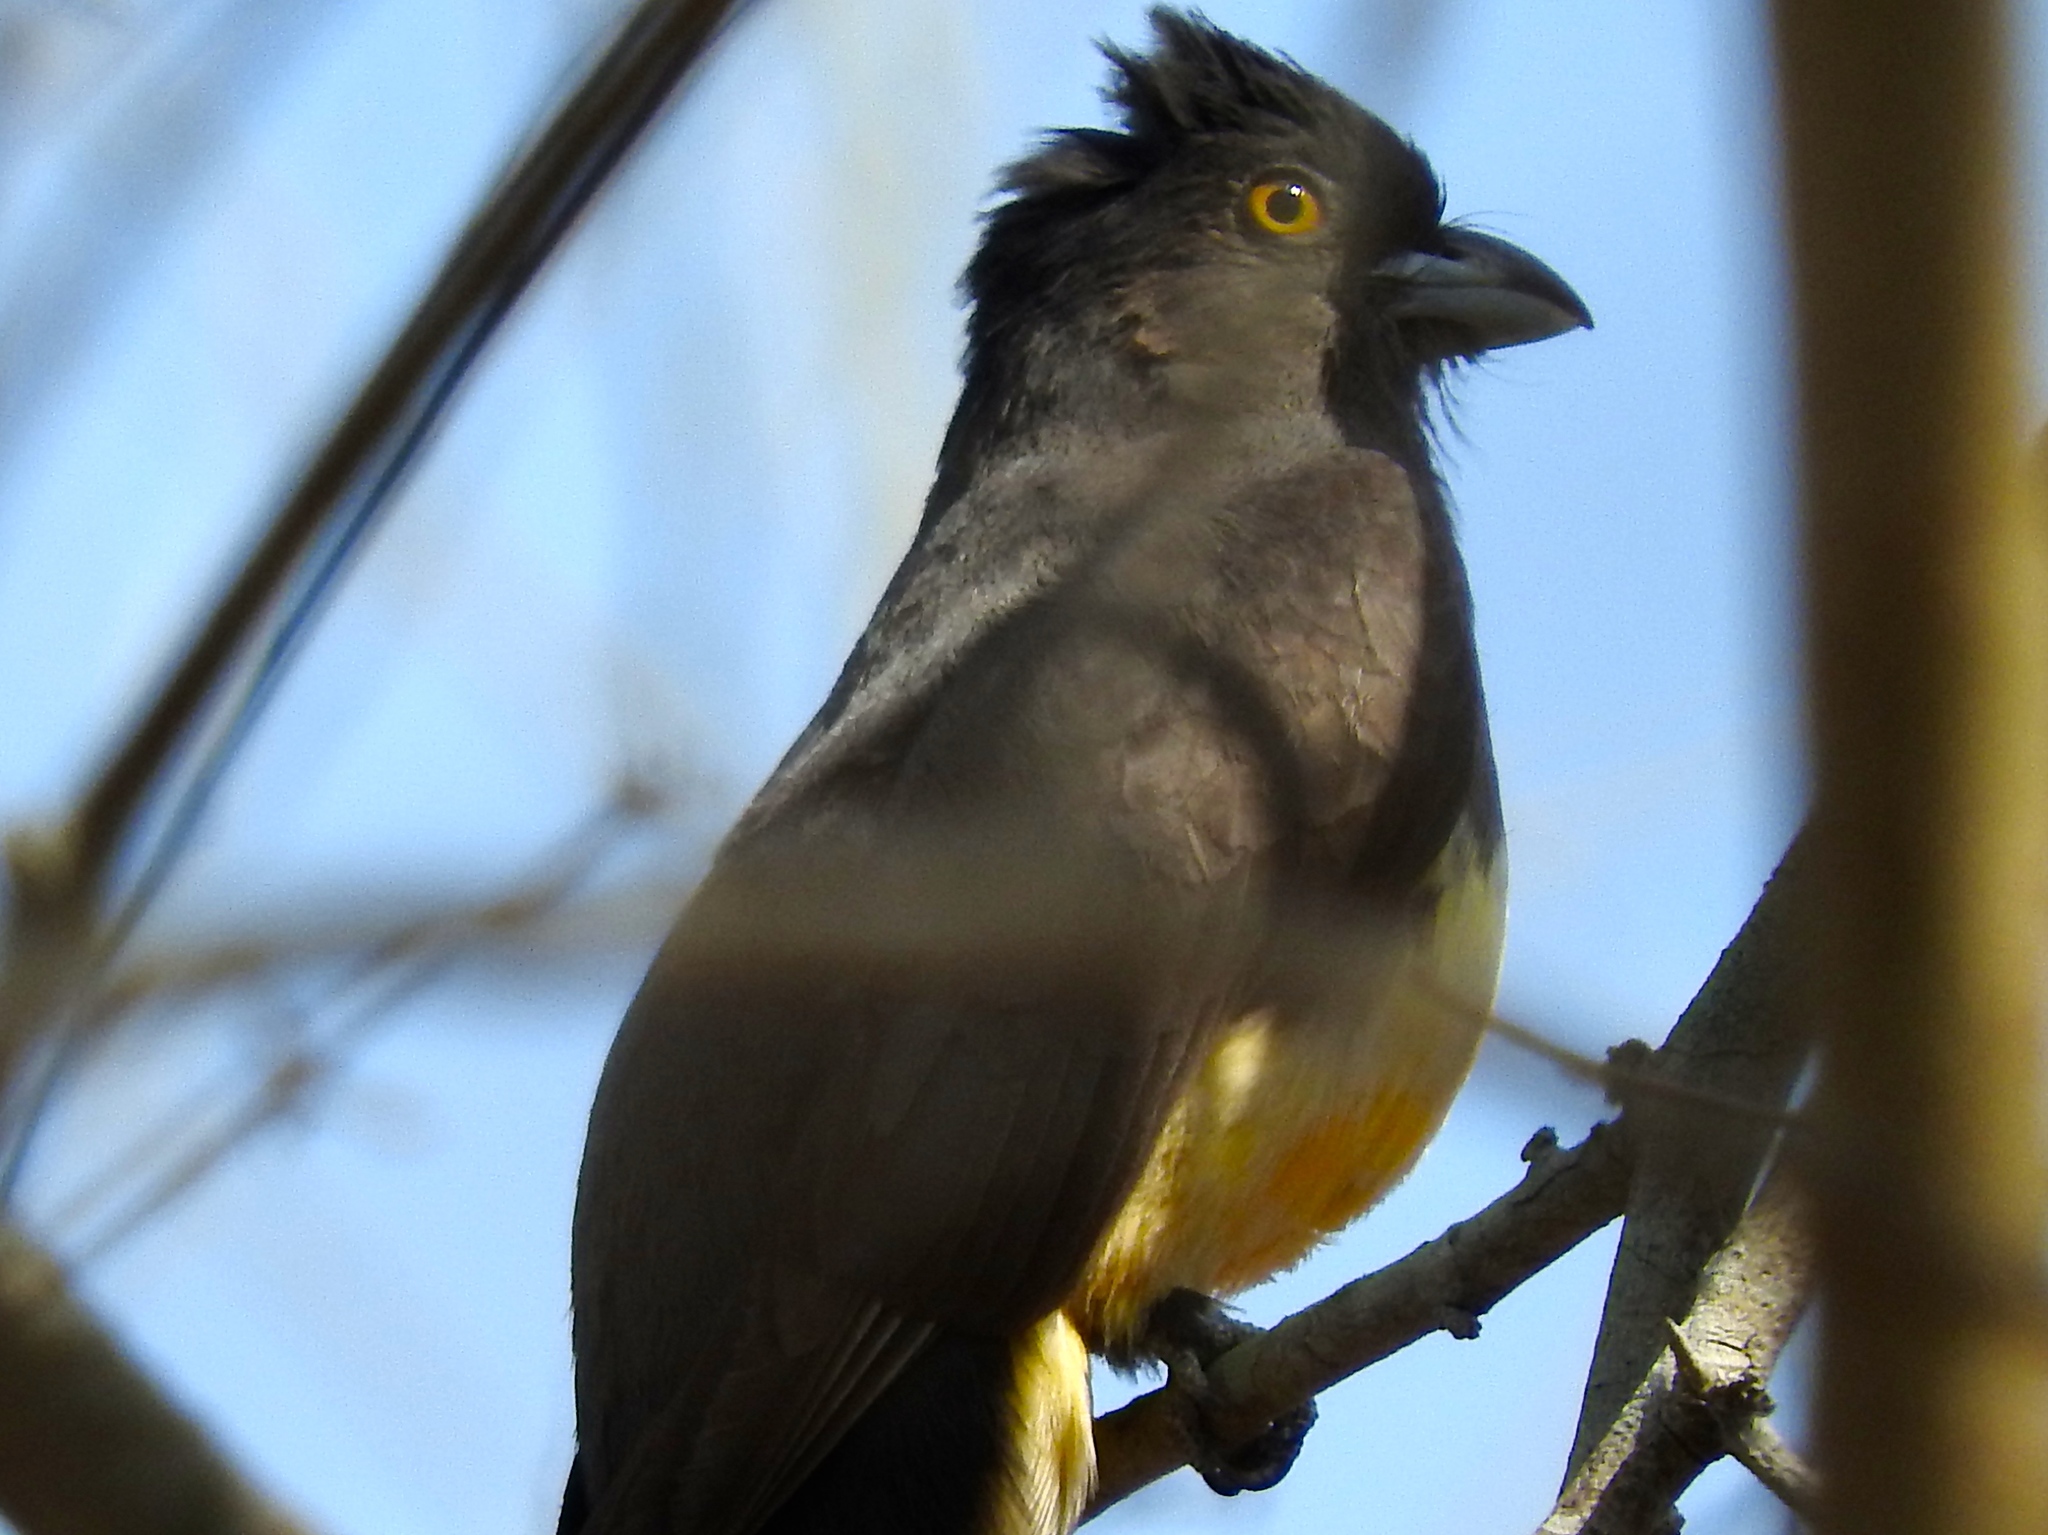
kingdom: Animalia
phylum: Chordata
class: Aves
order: Trogoniformes
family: Trogonidae
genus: Trogon
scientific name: Trogon citreolus
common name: Citreoline trogon
